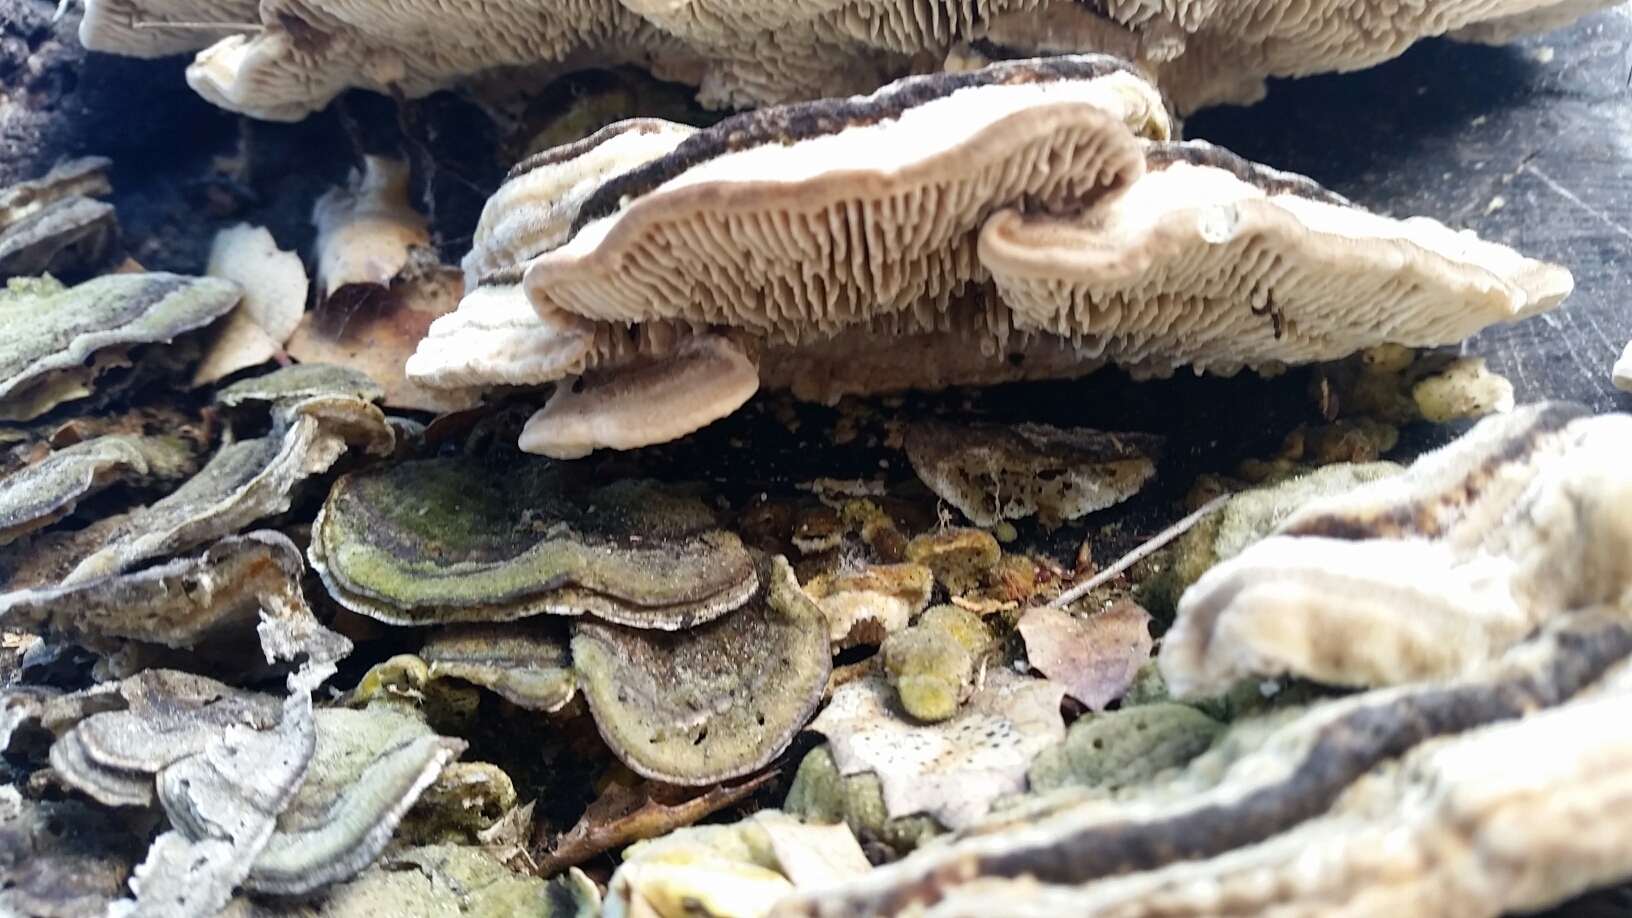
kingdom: Fungi
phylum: Basidiomycota
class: Agaricomycetes
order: Polyporales
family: Polyporaceae
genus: Lenzites
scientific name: Lenzites betulinus
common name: Birch mazegill
